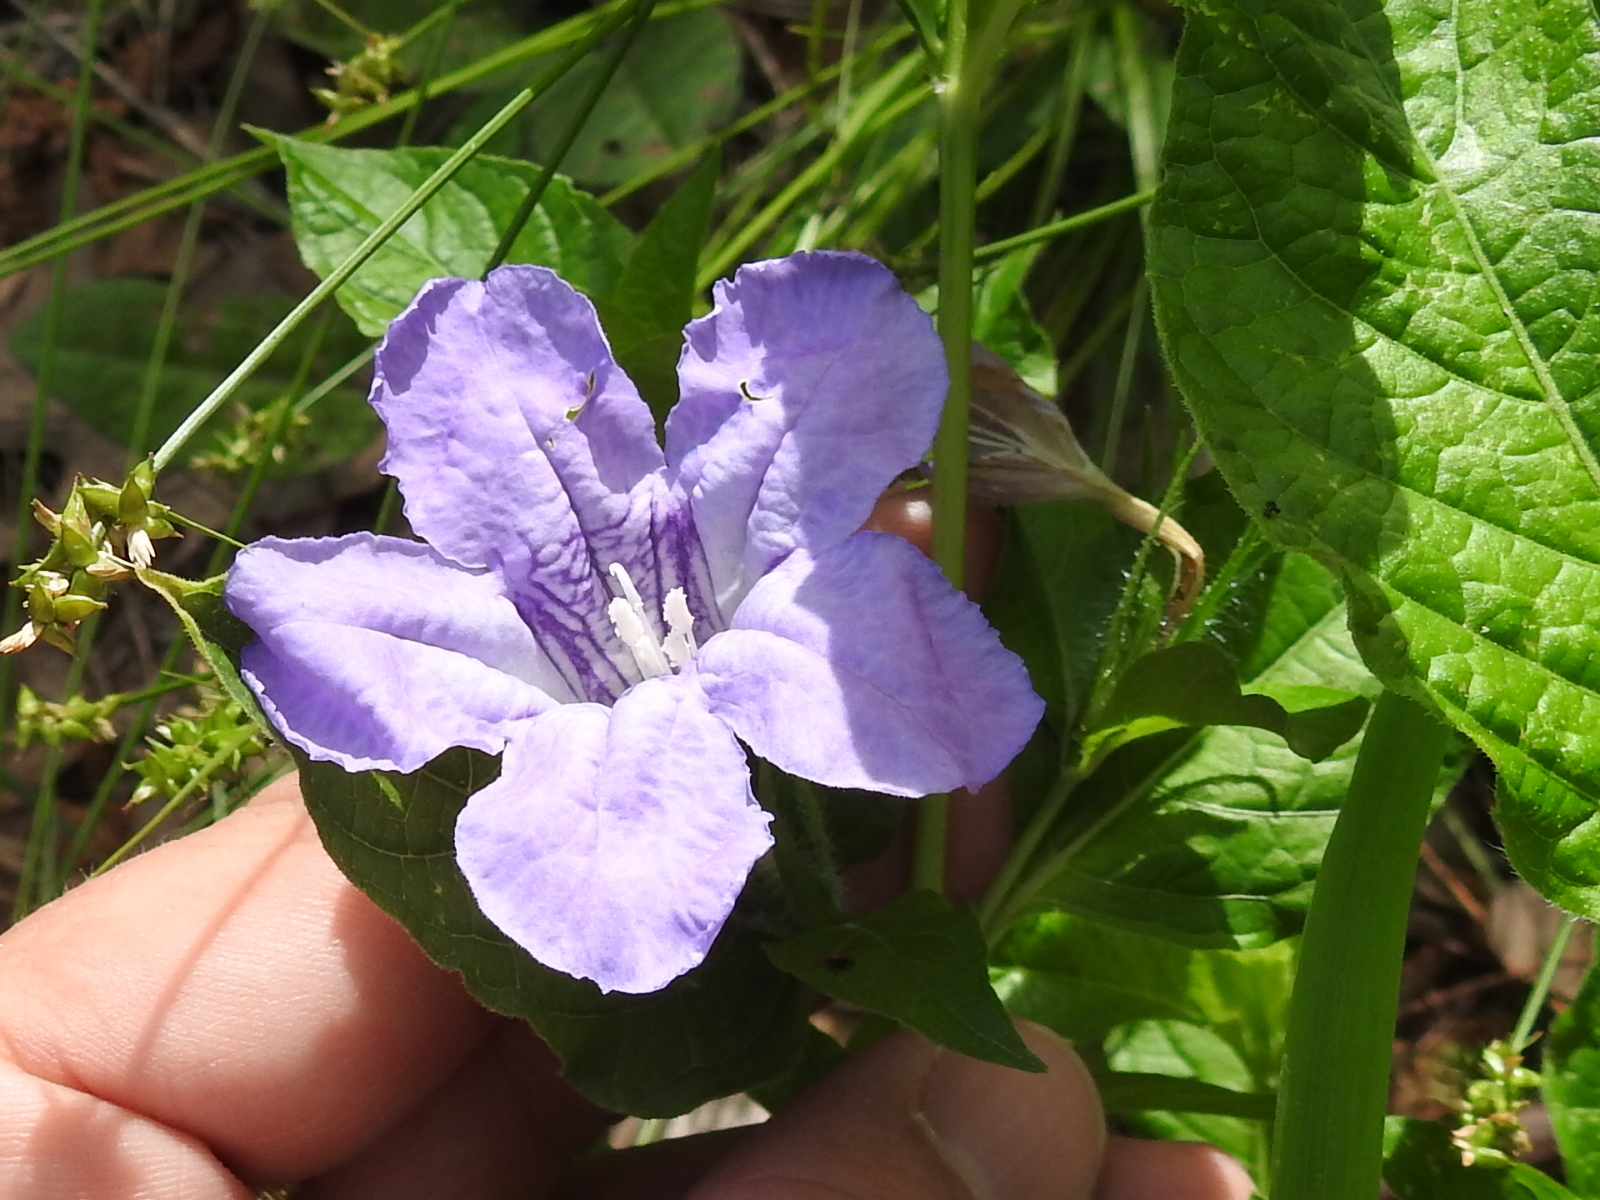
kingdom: Plantae
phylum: Tracheophyta
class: Magnoliopsida
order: Lamiales
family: Acanthaceae
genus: Ruellia
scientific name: Ruellia ciliatiflora
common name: Hairyflower wild petunia
